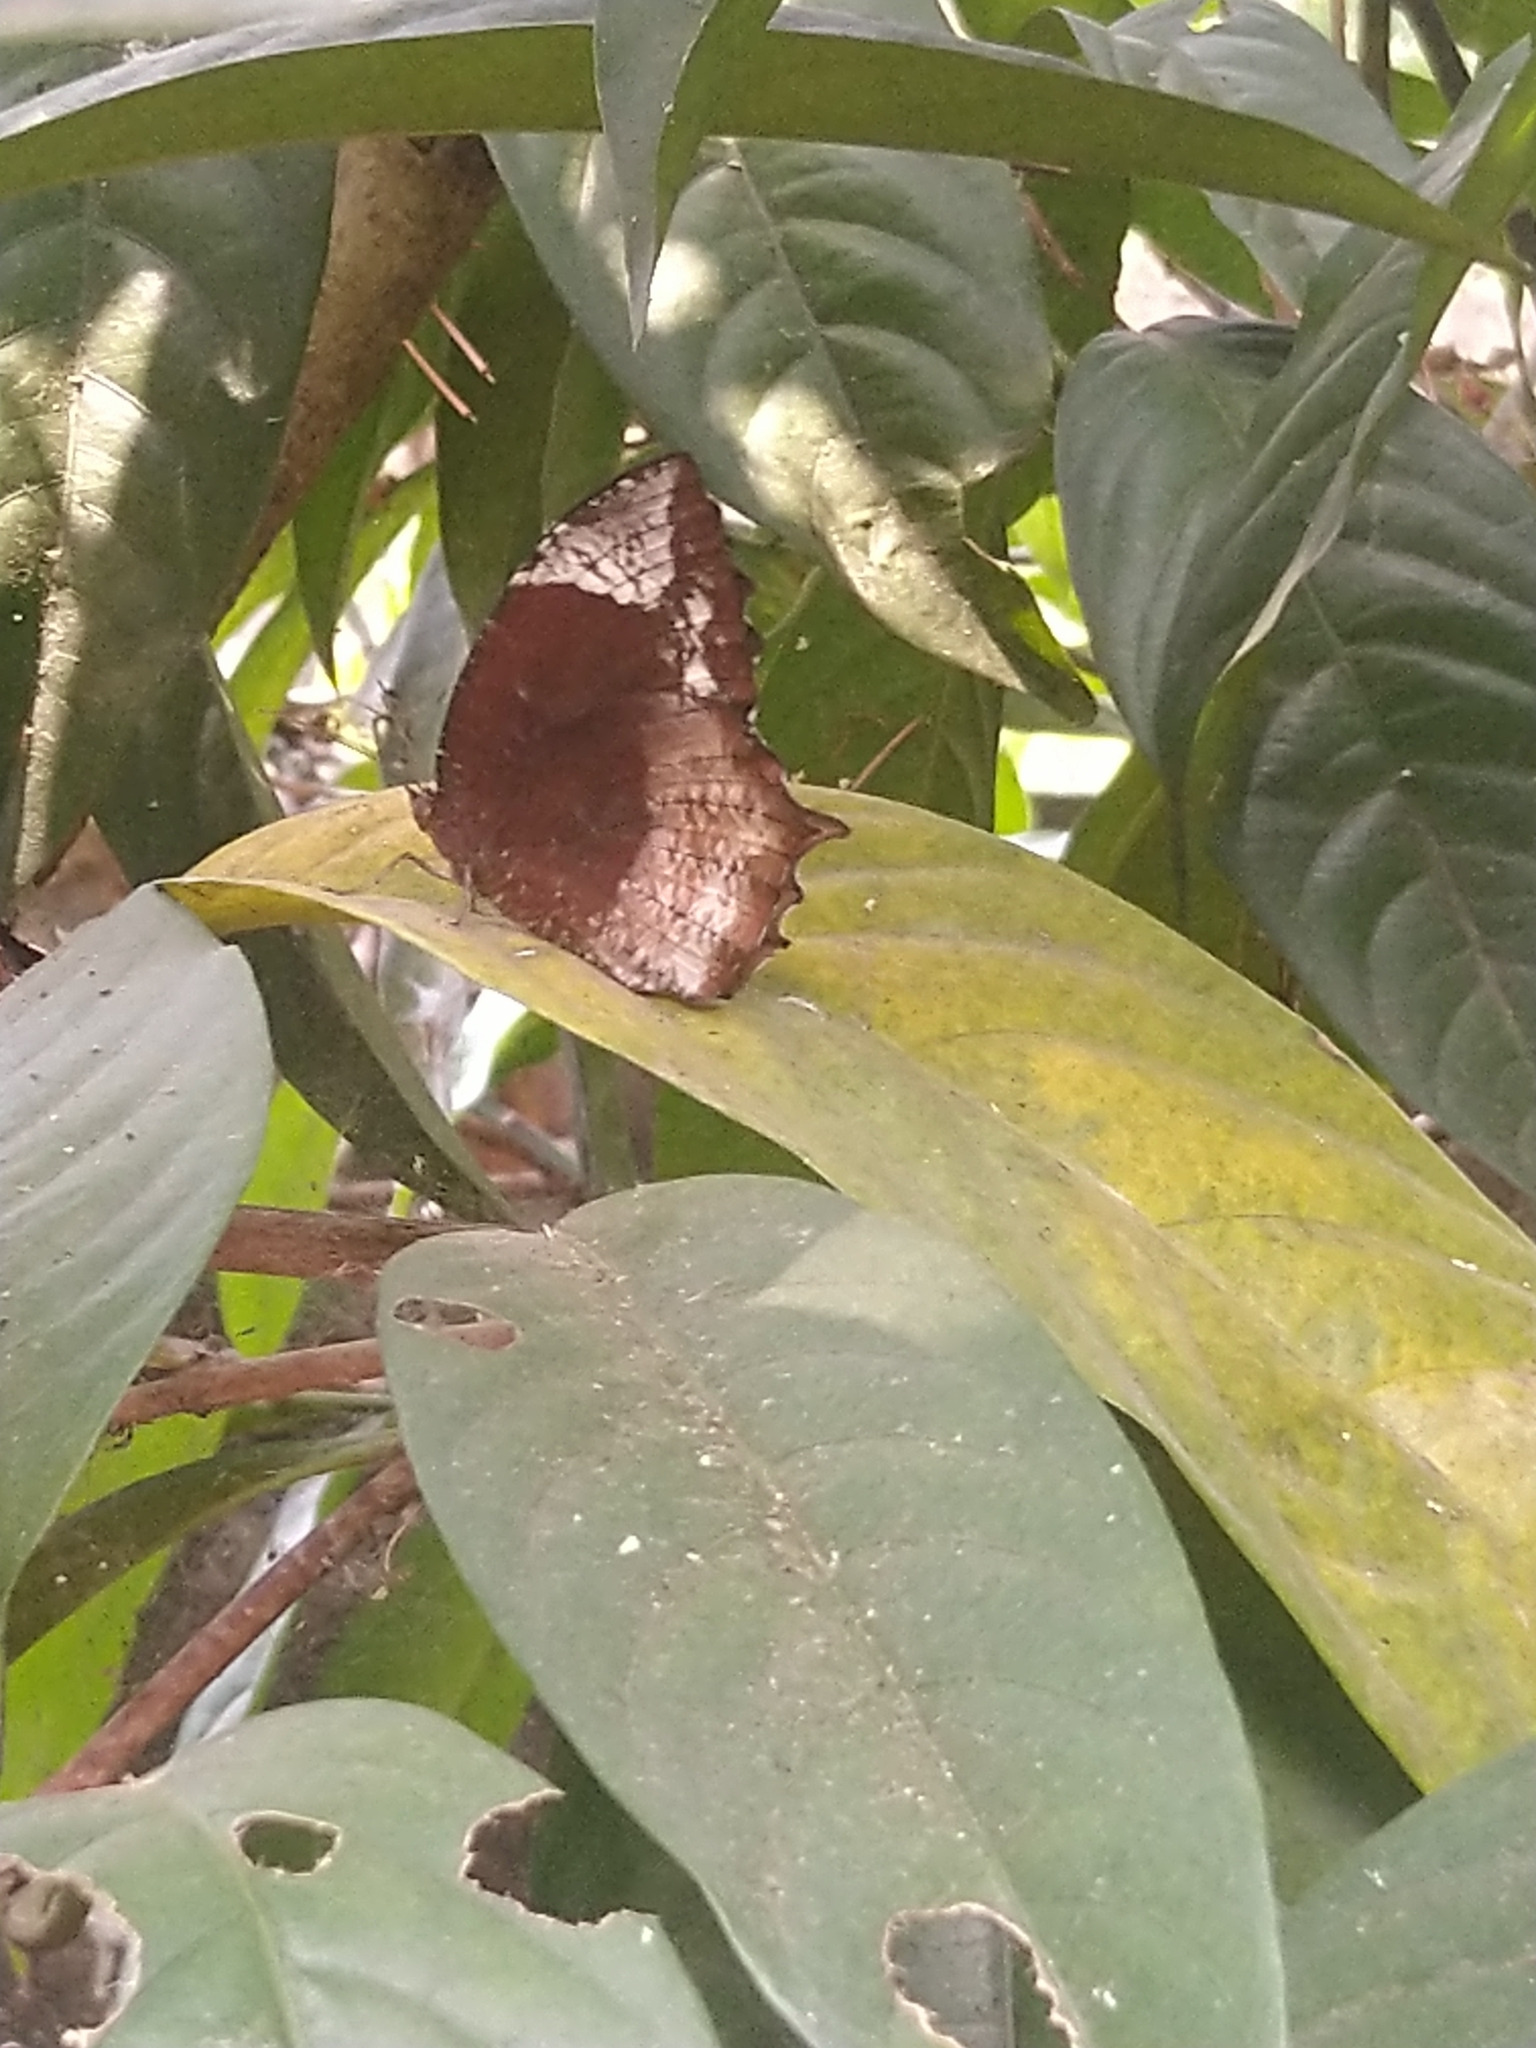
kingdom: Animalia
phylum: Arthropoda
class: Insecta
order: Lepidoptera
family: Nymphalidae
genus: Elymnias
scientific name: Elymnias caudata
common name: Tailed palmfly
